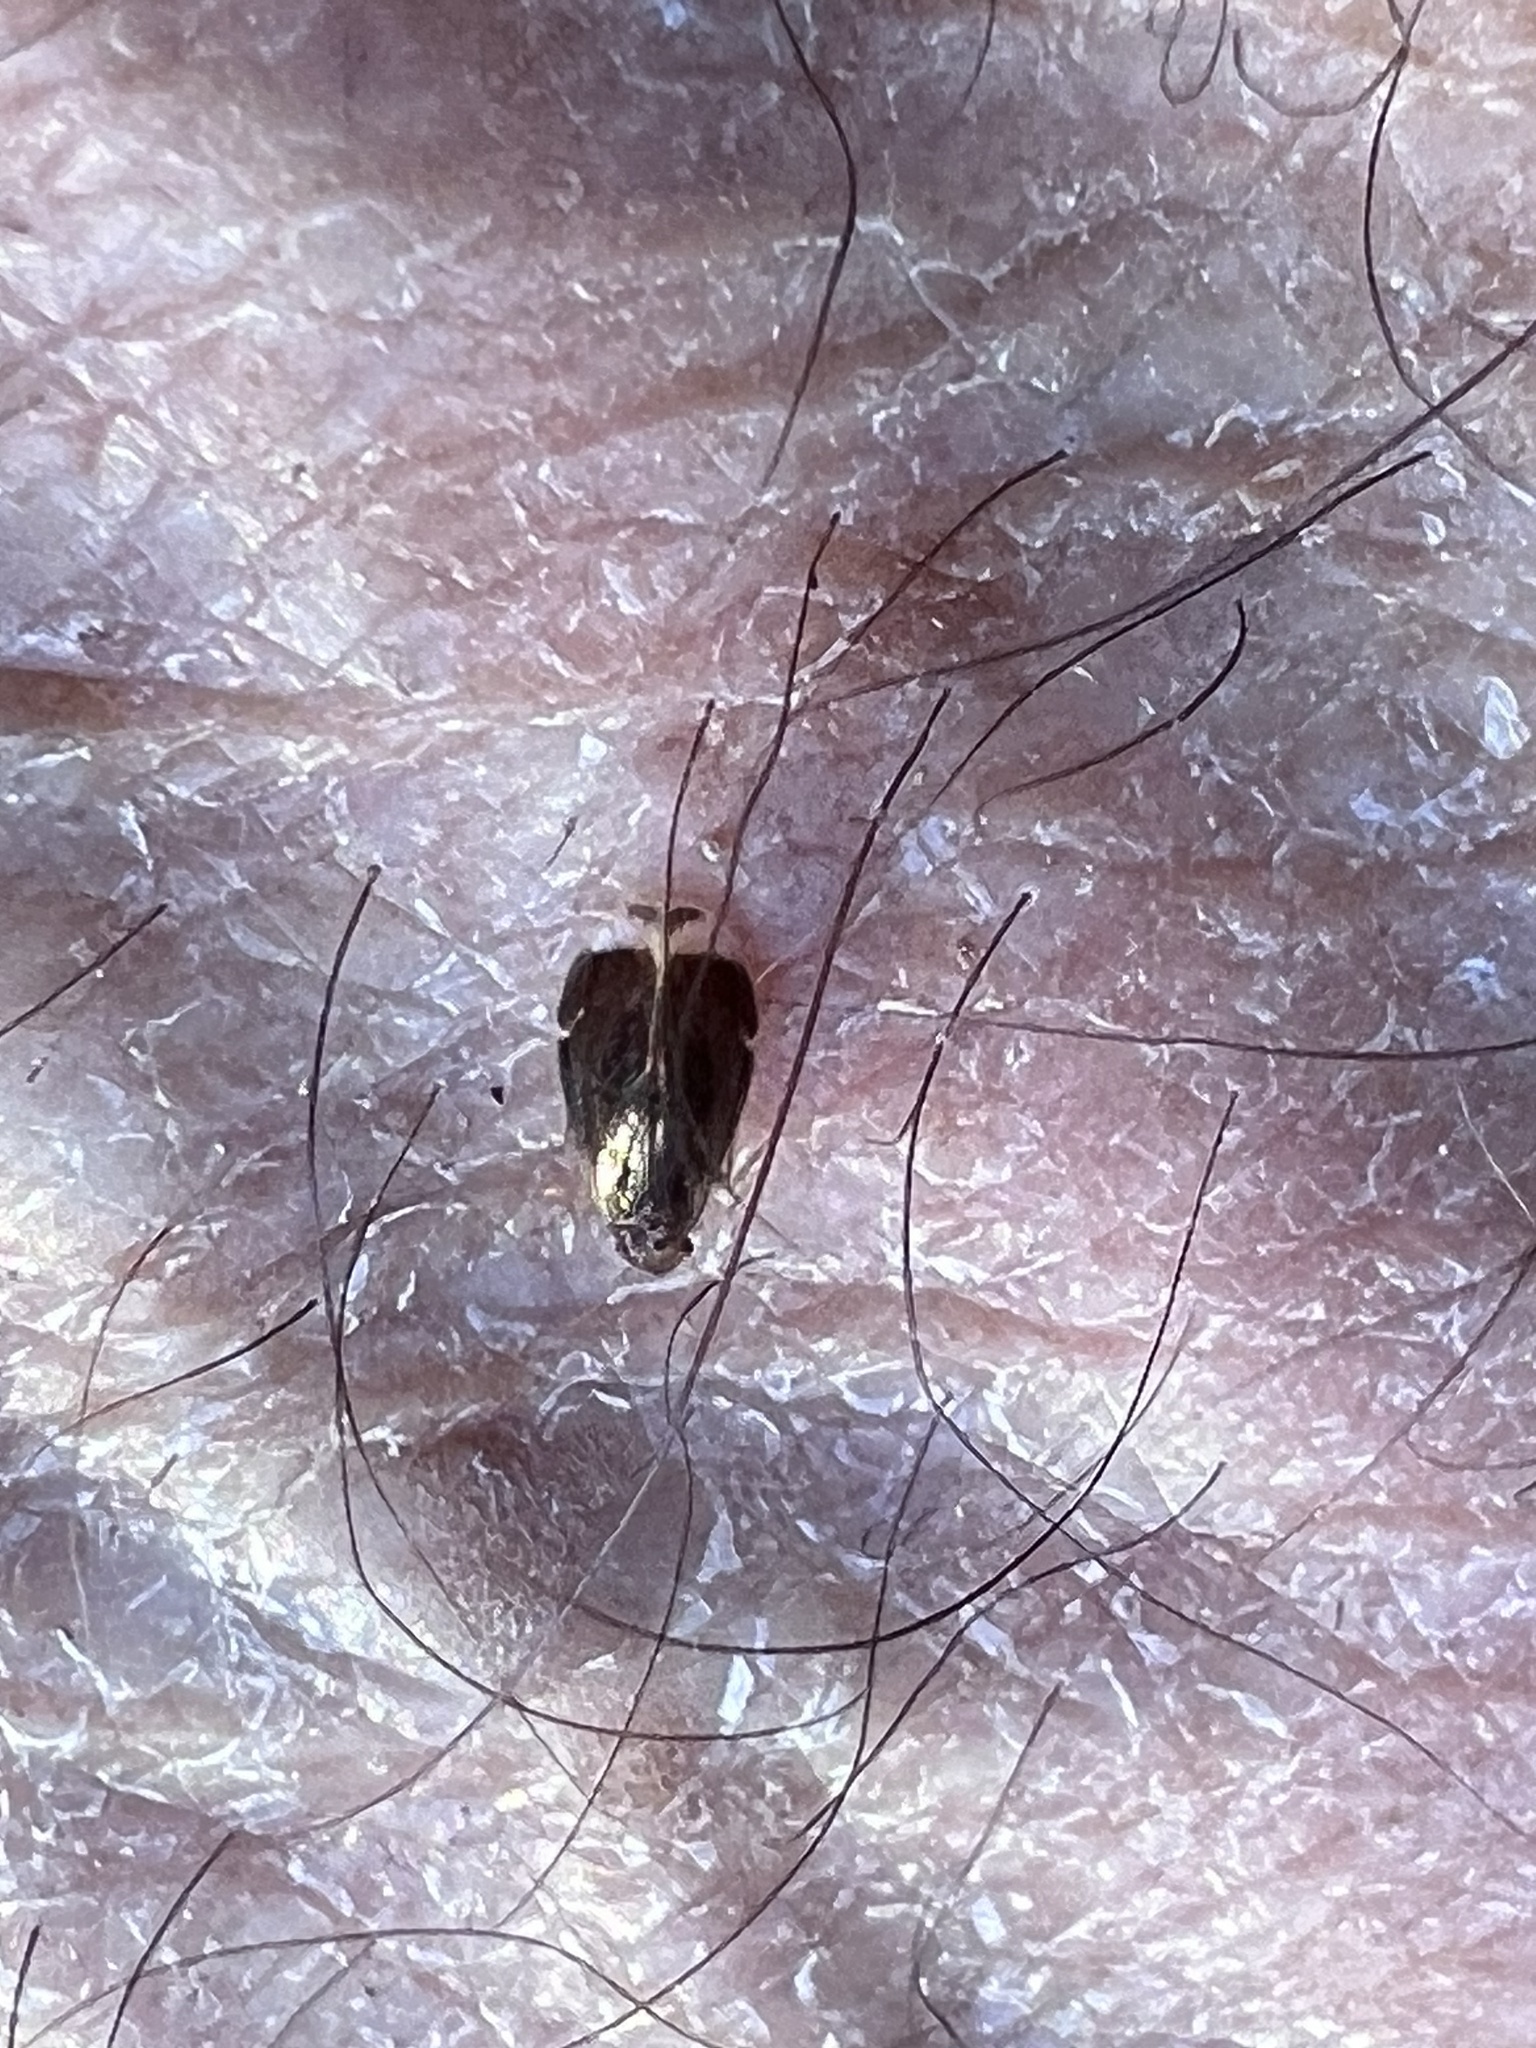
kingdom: Animalia
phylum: Arthropoda
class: Insecta
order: Psocodea
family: Amphipsocidae
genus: Polypsocus
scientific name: Polypsocus corruptus
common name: Corrupt barklouse
